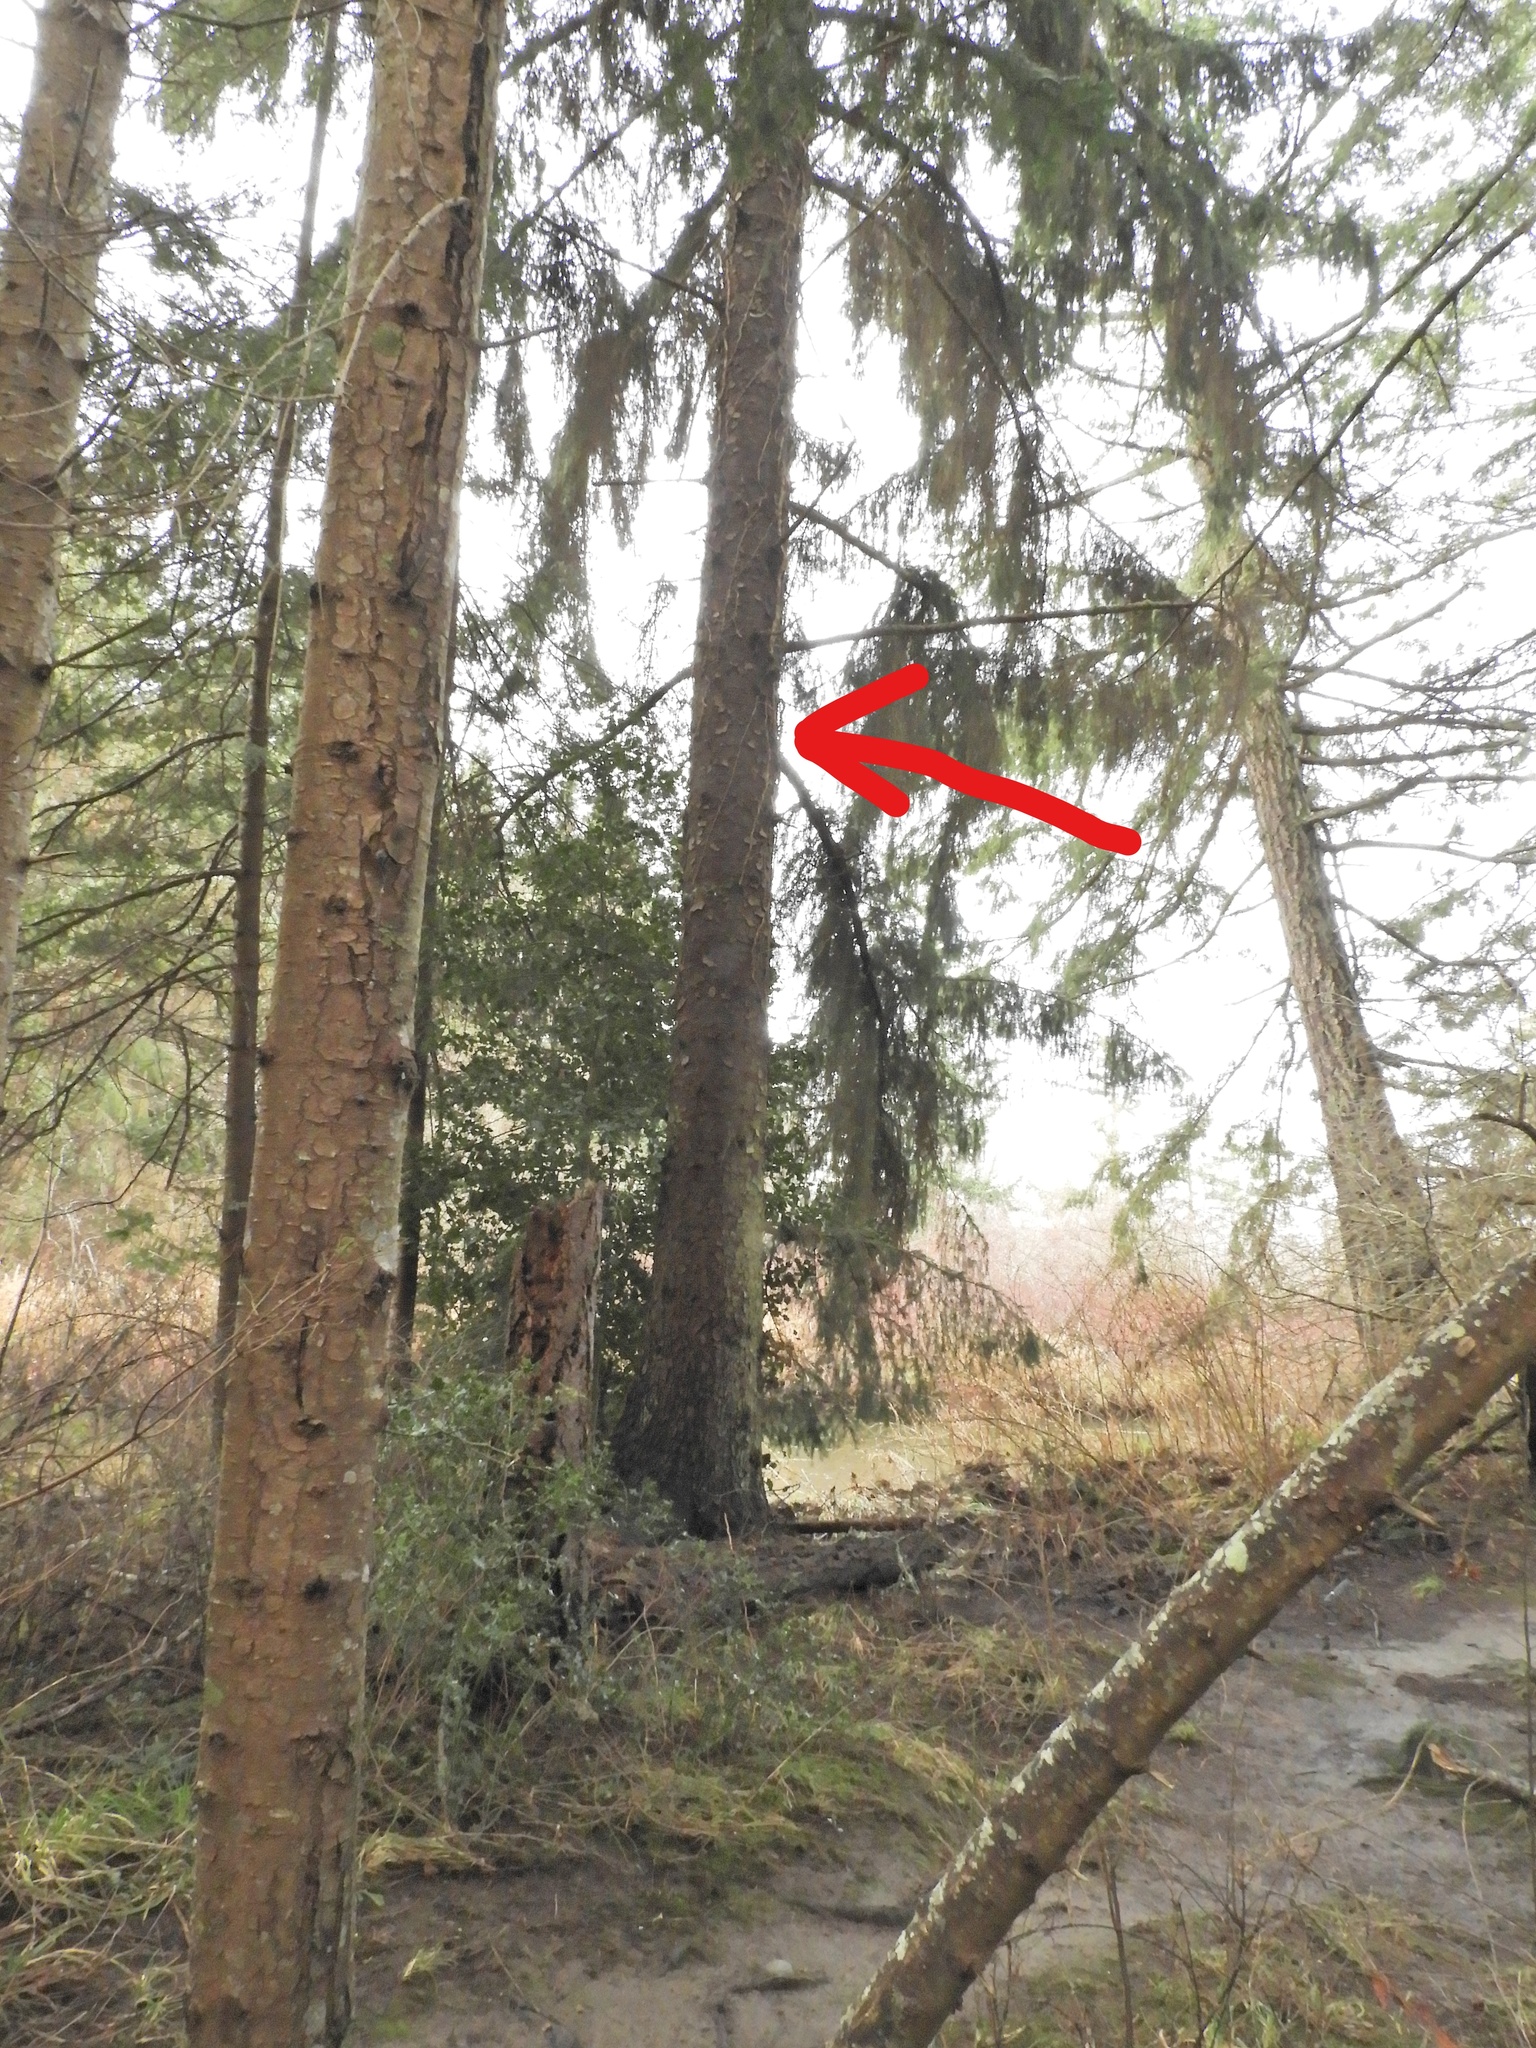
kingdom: Plantae
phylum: Tracheophyta
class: Pinopsida
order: Pinales
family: Pinaceae
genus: Picea
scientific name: Picea sitchensis
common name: Sitka spruce
